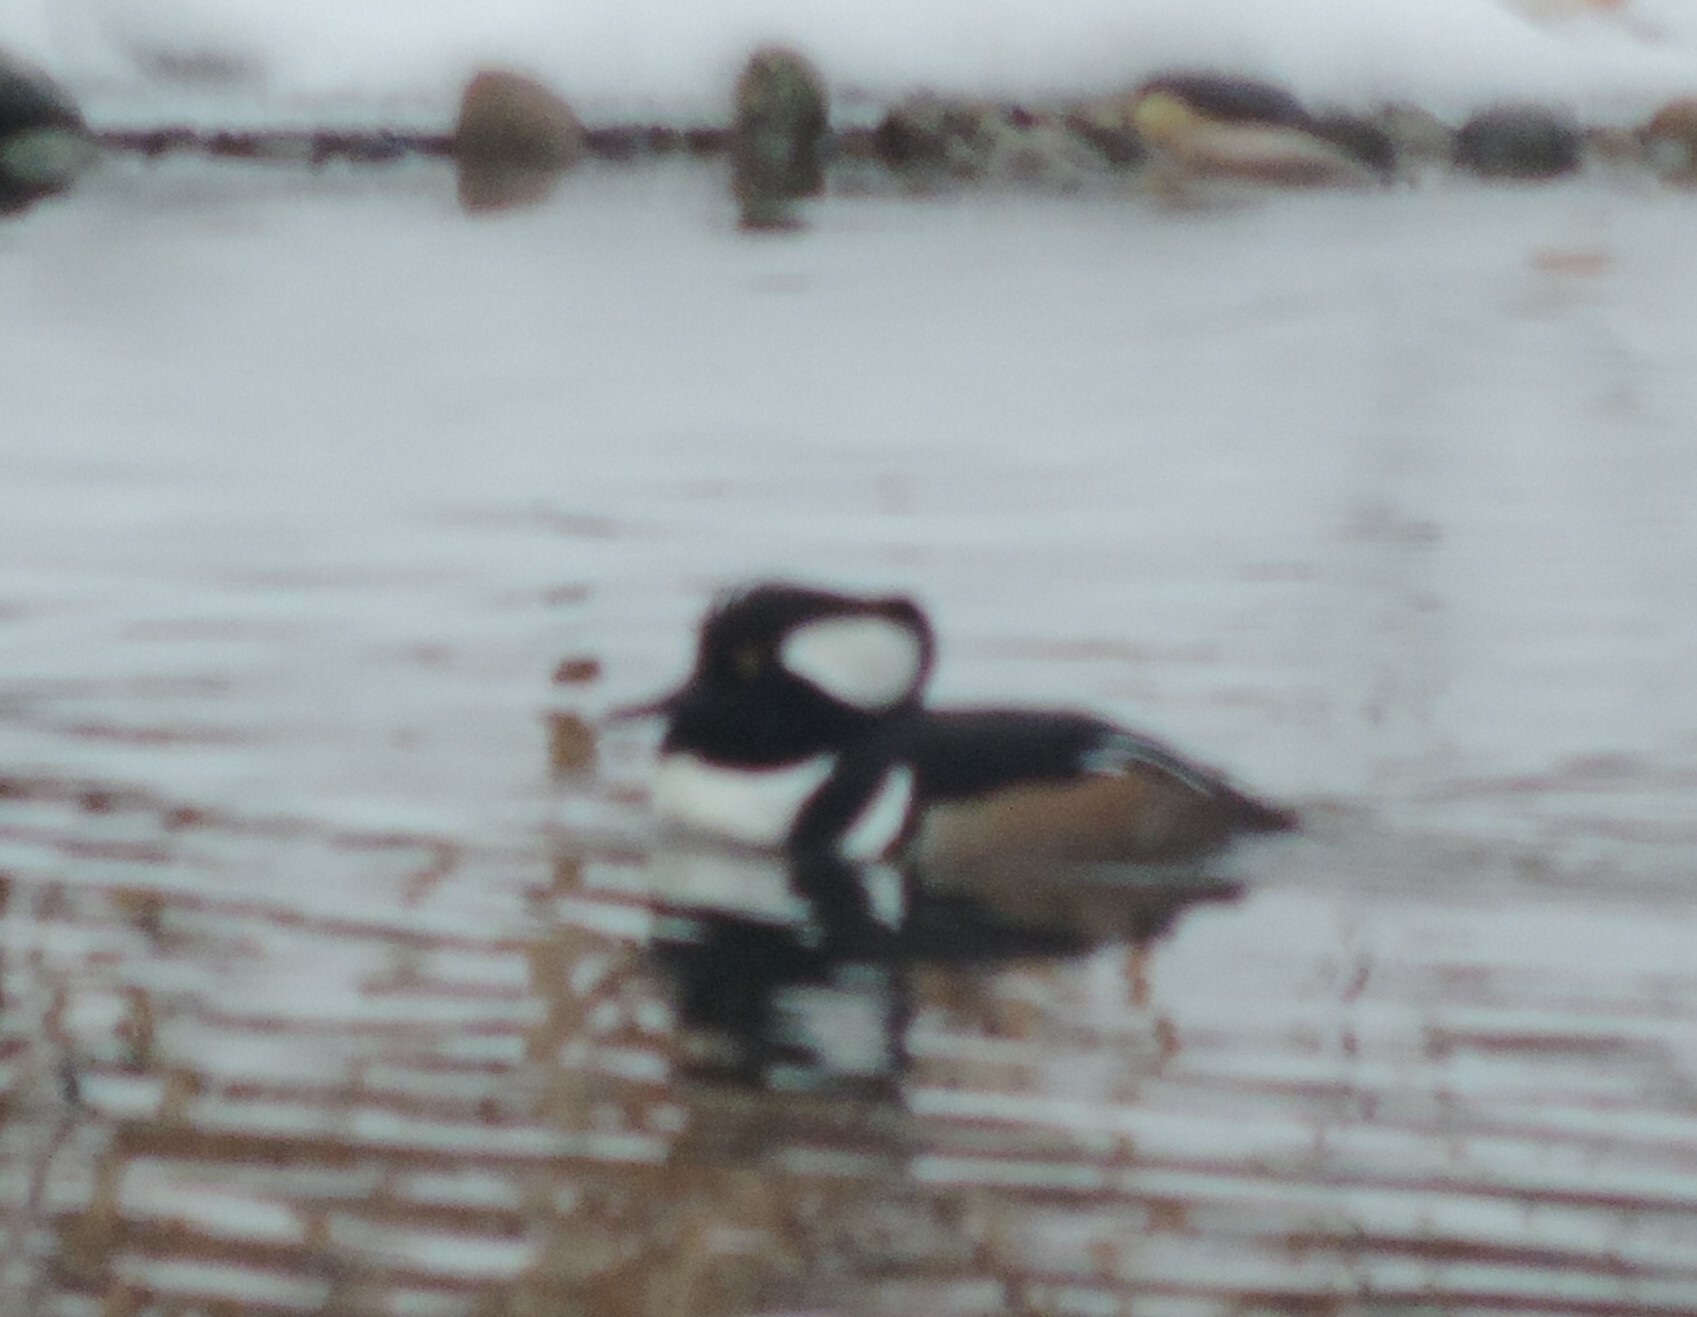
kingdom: Animalia
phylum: Chordata
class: Aves
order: Anseriformes
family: Anatidae
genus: Lophodytes
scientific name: Lophodytes cucullatus
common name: Hooded merganser
